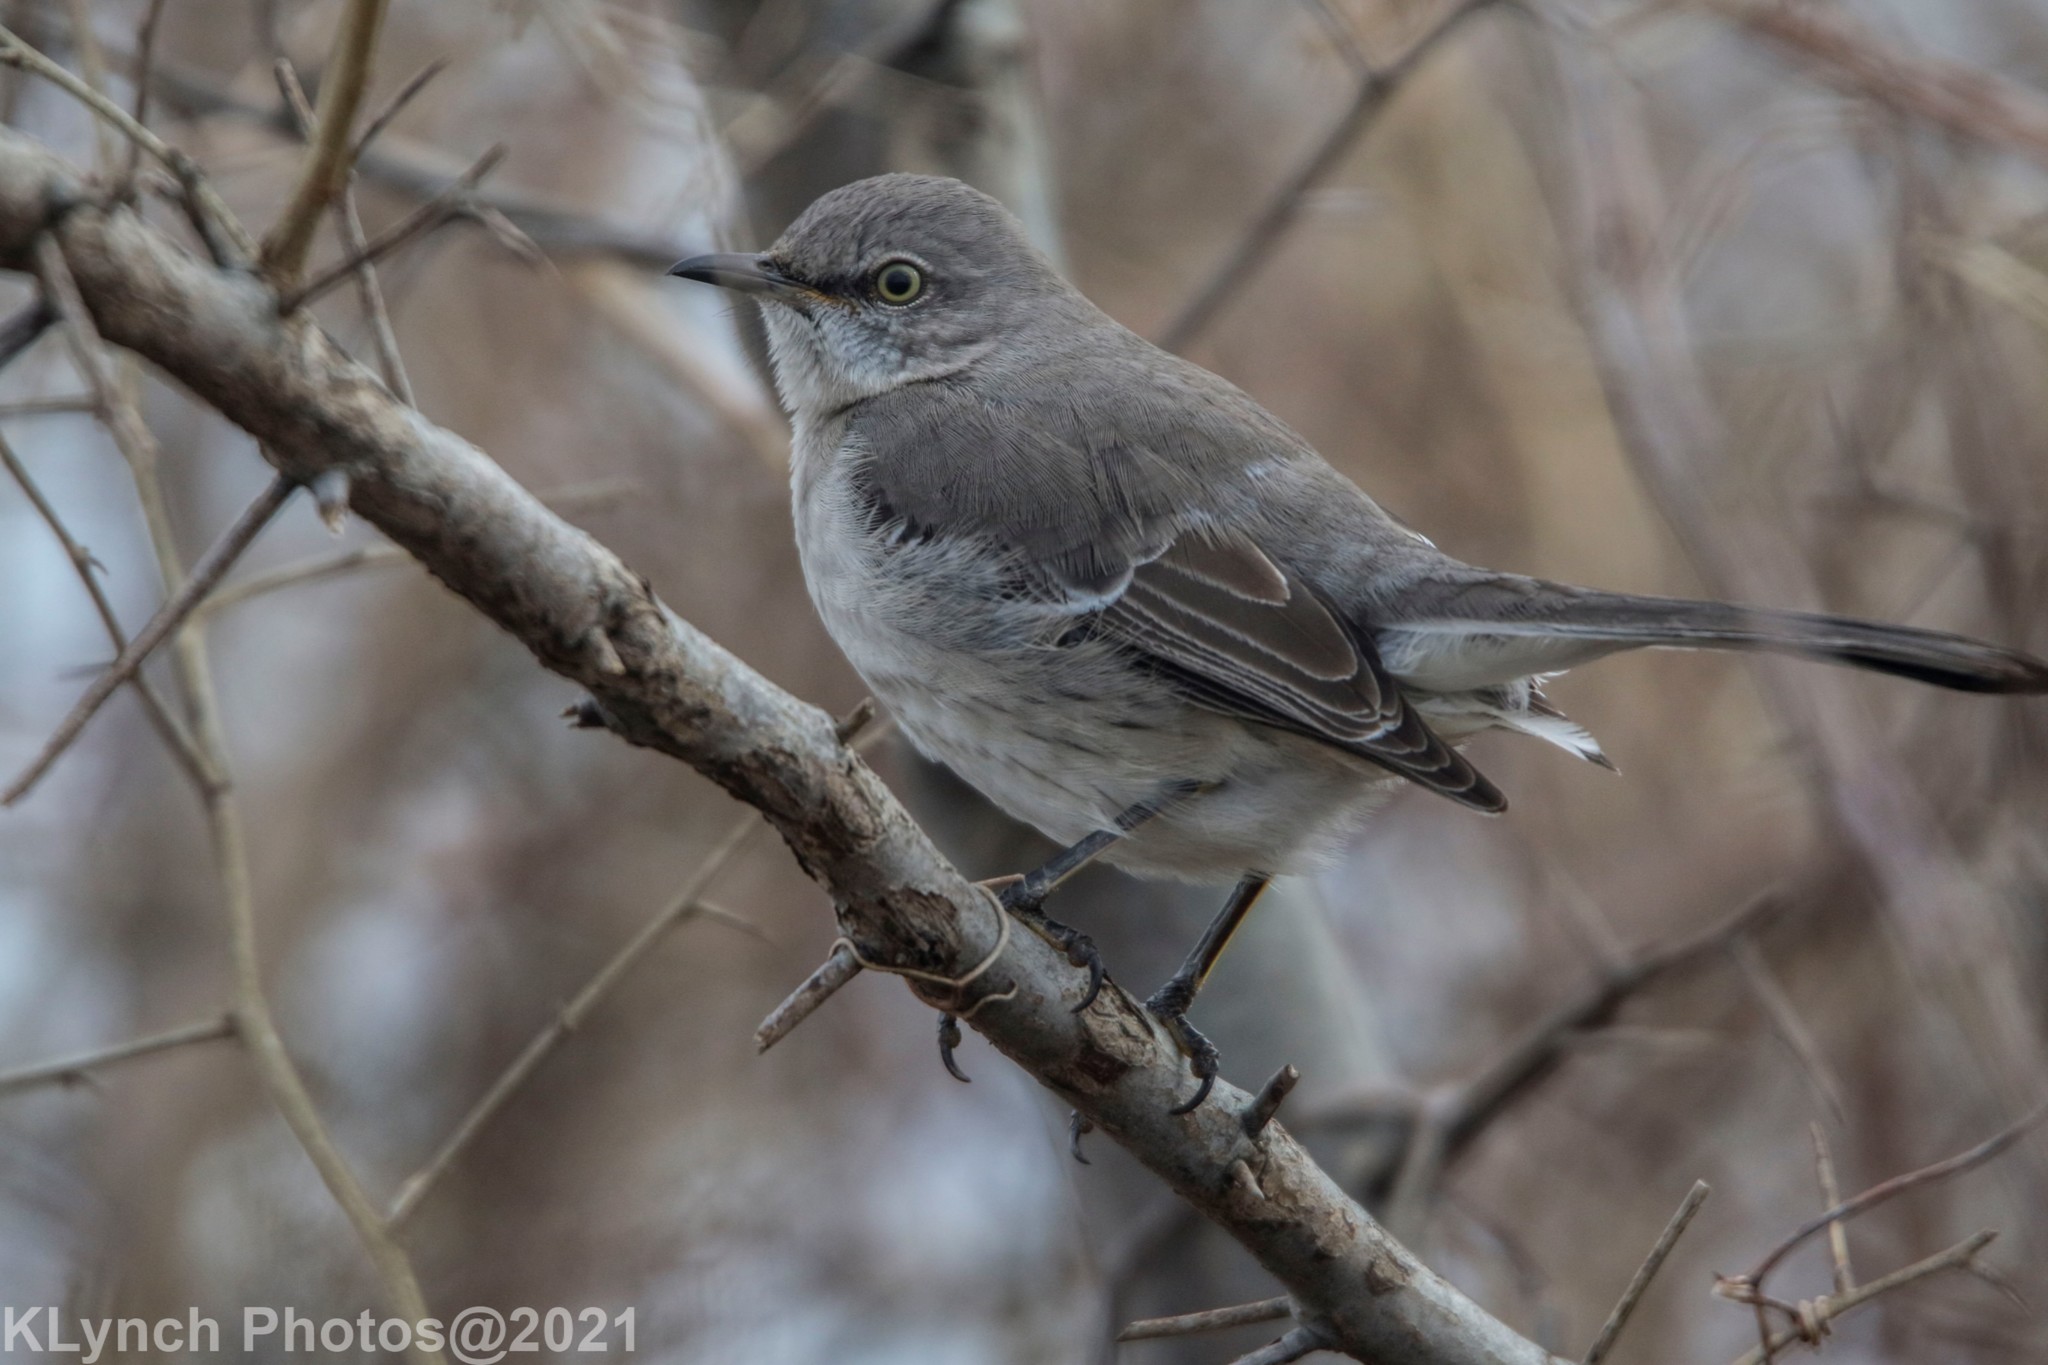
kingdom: Animalia
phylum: Chordata
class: Aves
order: Passeriformes
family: Mimidae
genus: Mimus
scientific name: Mimus polyglottos
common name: Northern mockingbird
